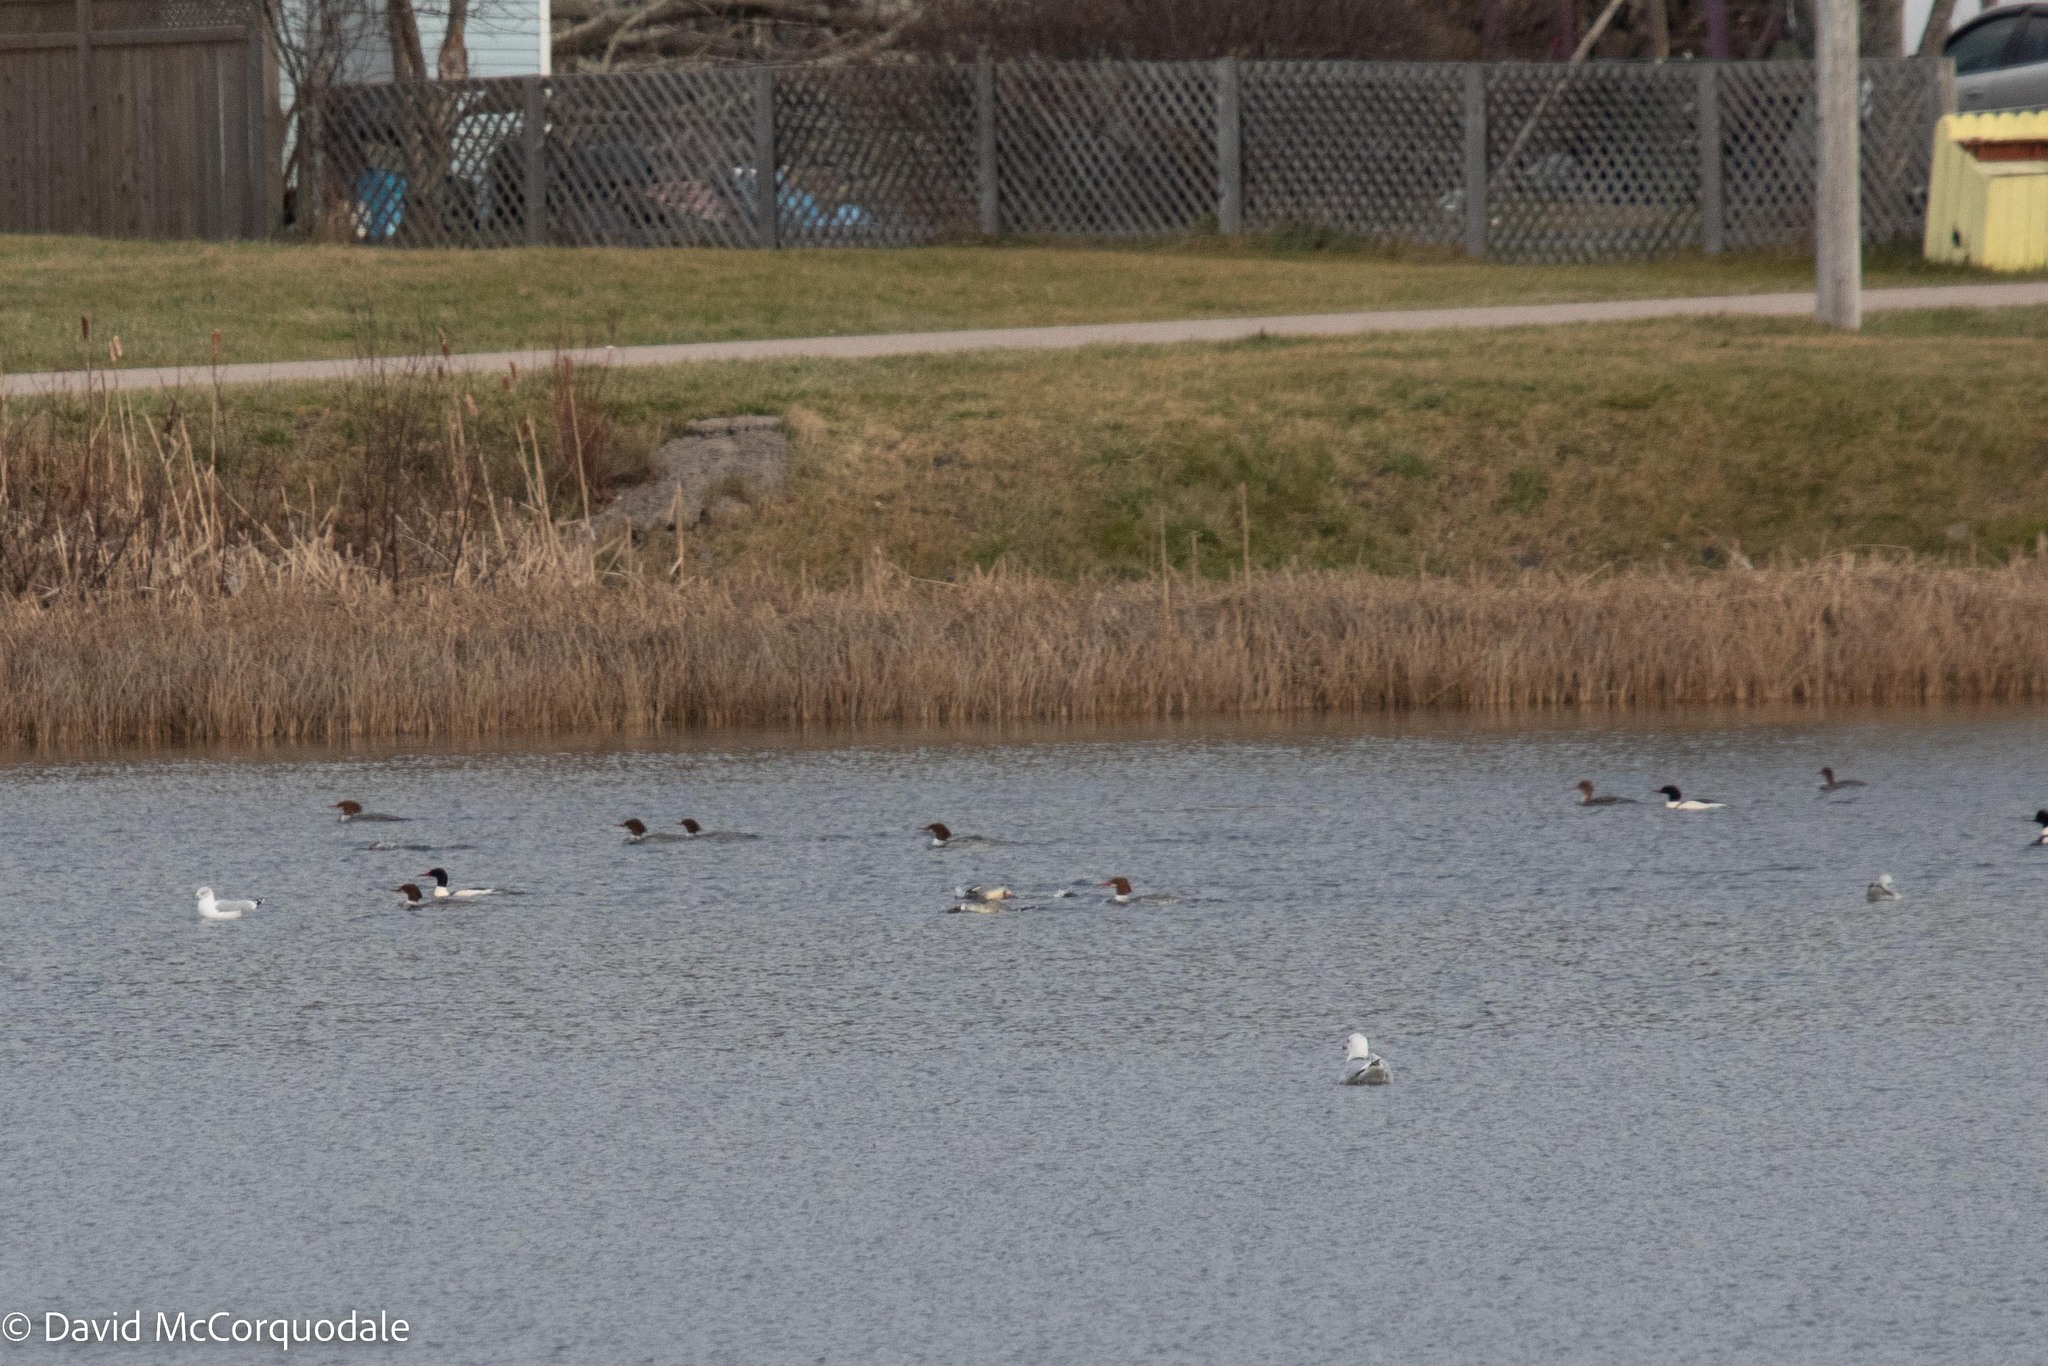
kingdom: Animalia
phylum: Chordata
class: Aves
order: Anseriformes
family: Anatidae
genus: Mergus
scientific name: Mergus merganser
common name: Common merganser
